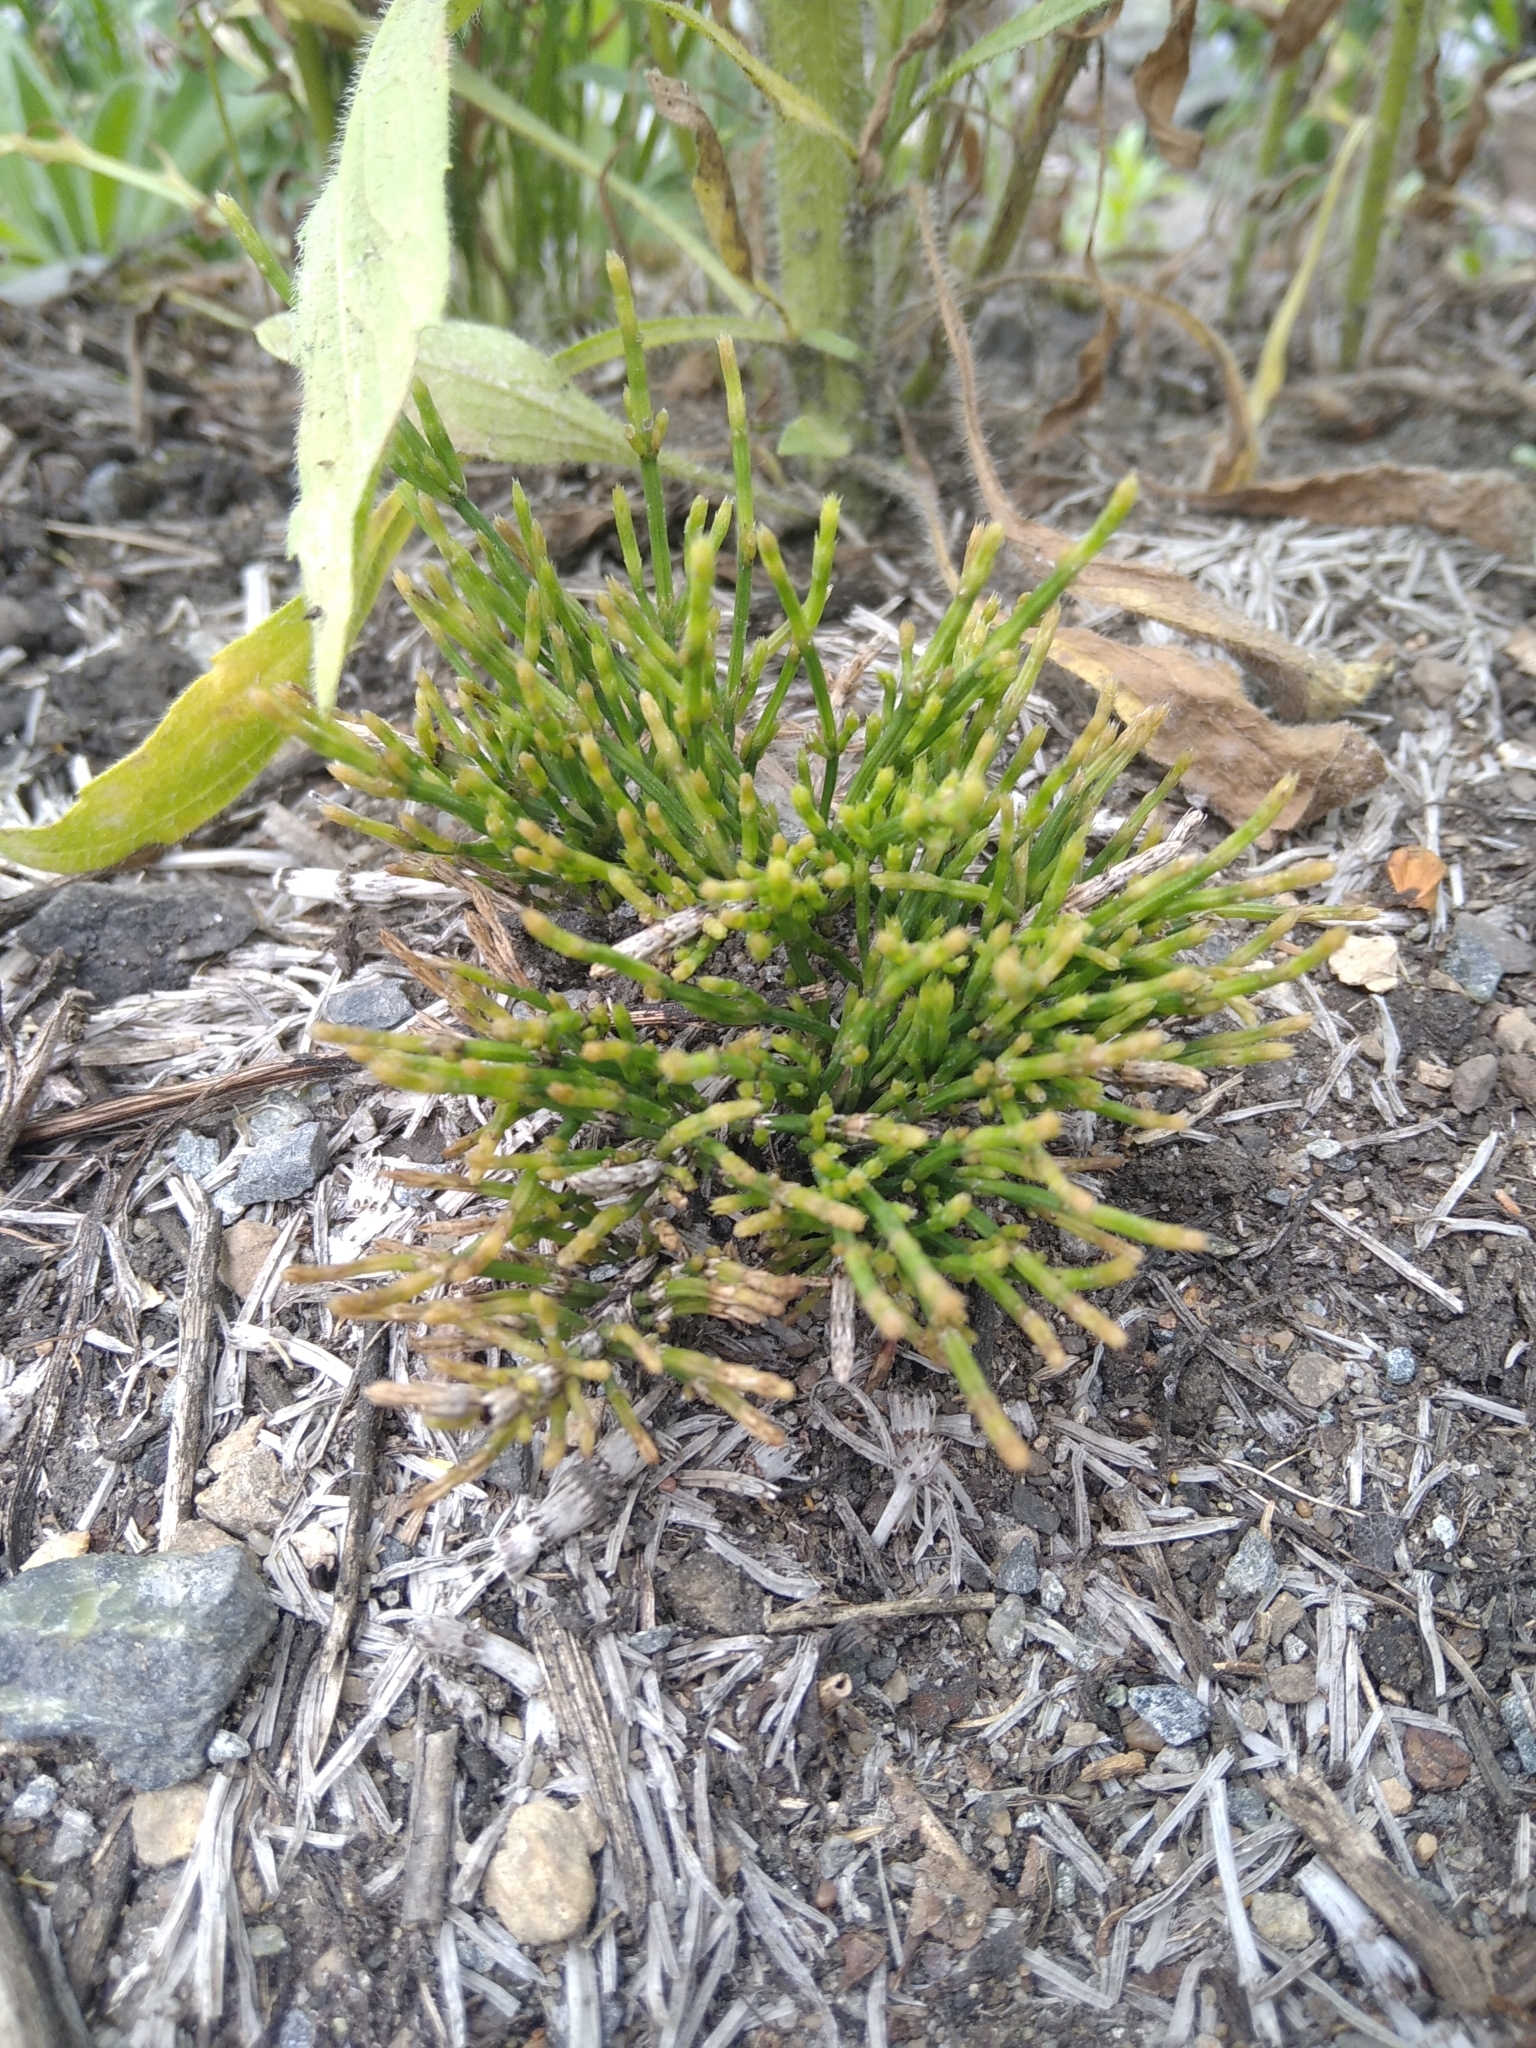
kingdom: Plantae
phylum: Tracheophyta
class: Polypodiopsida
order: Equisetales
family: Equisetaceae
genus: Equisetum
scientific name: Equisetum arvense
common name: Field horsetail
